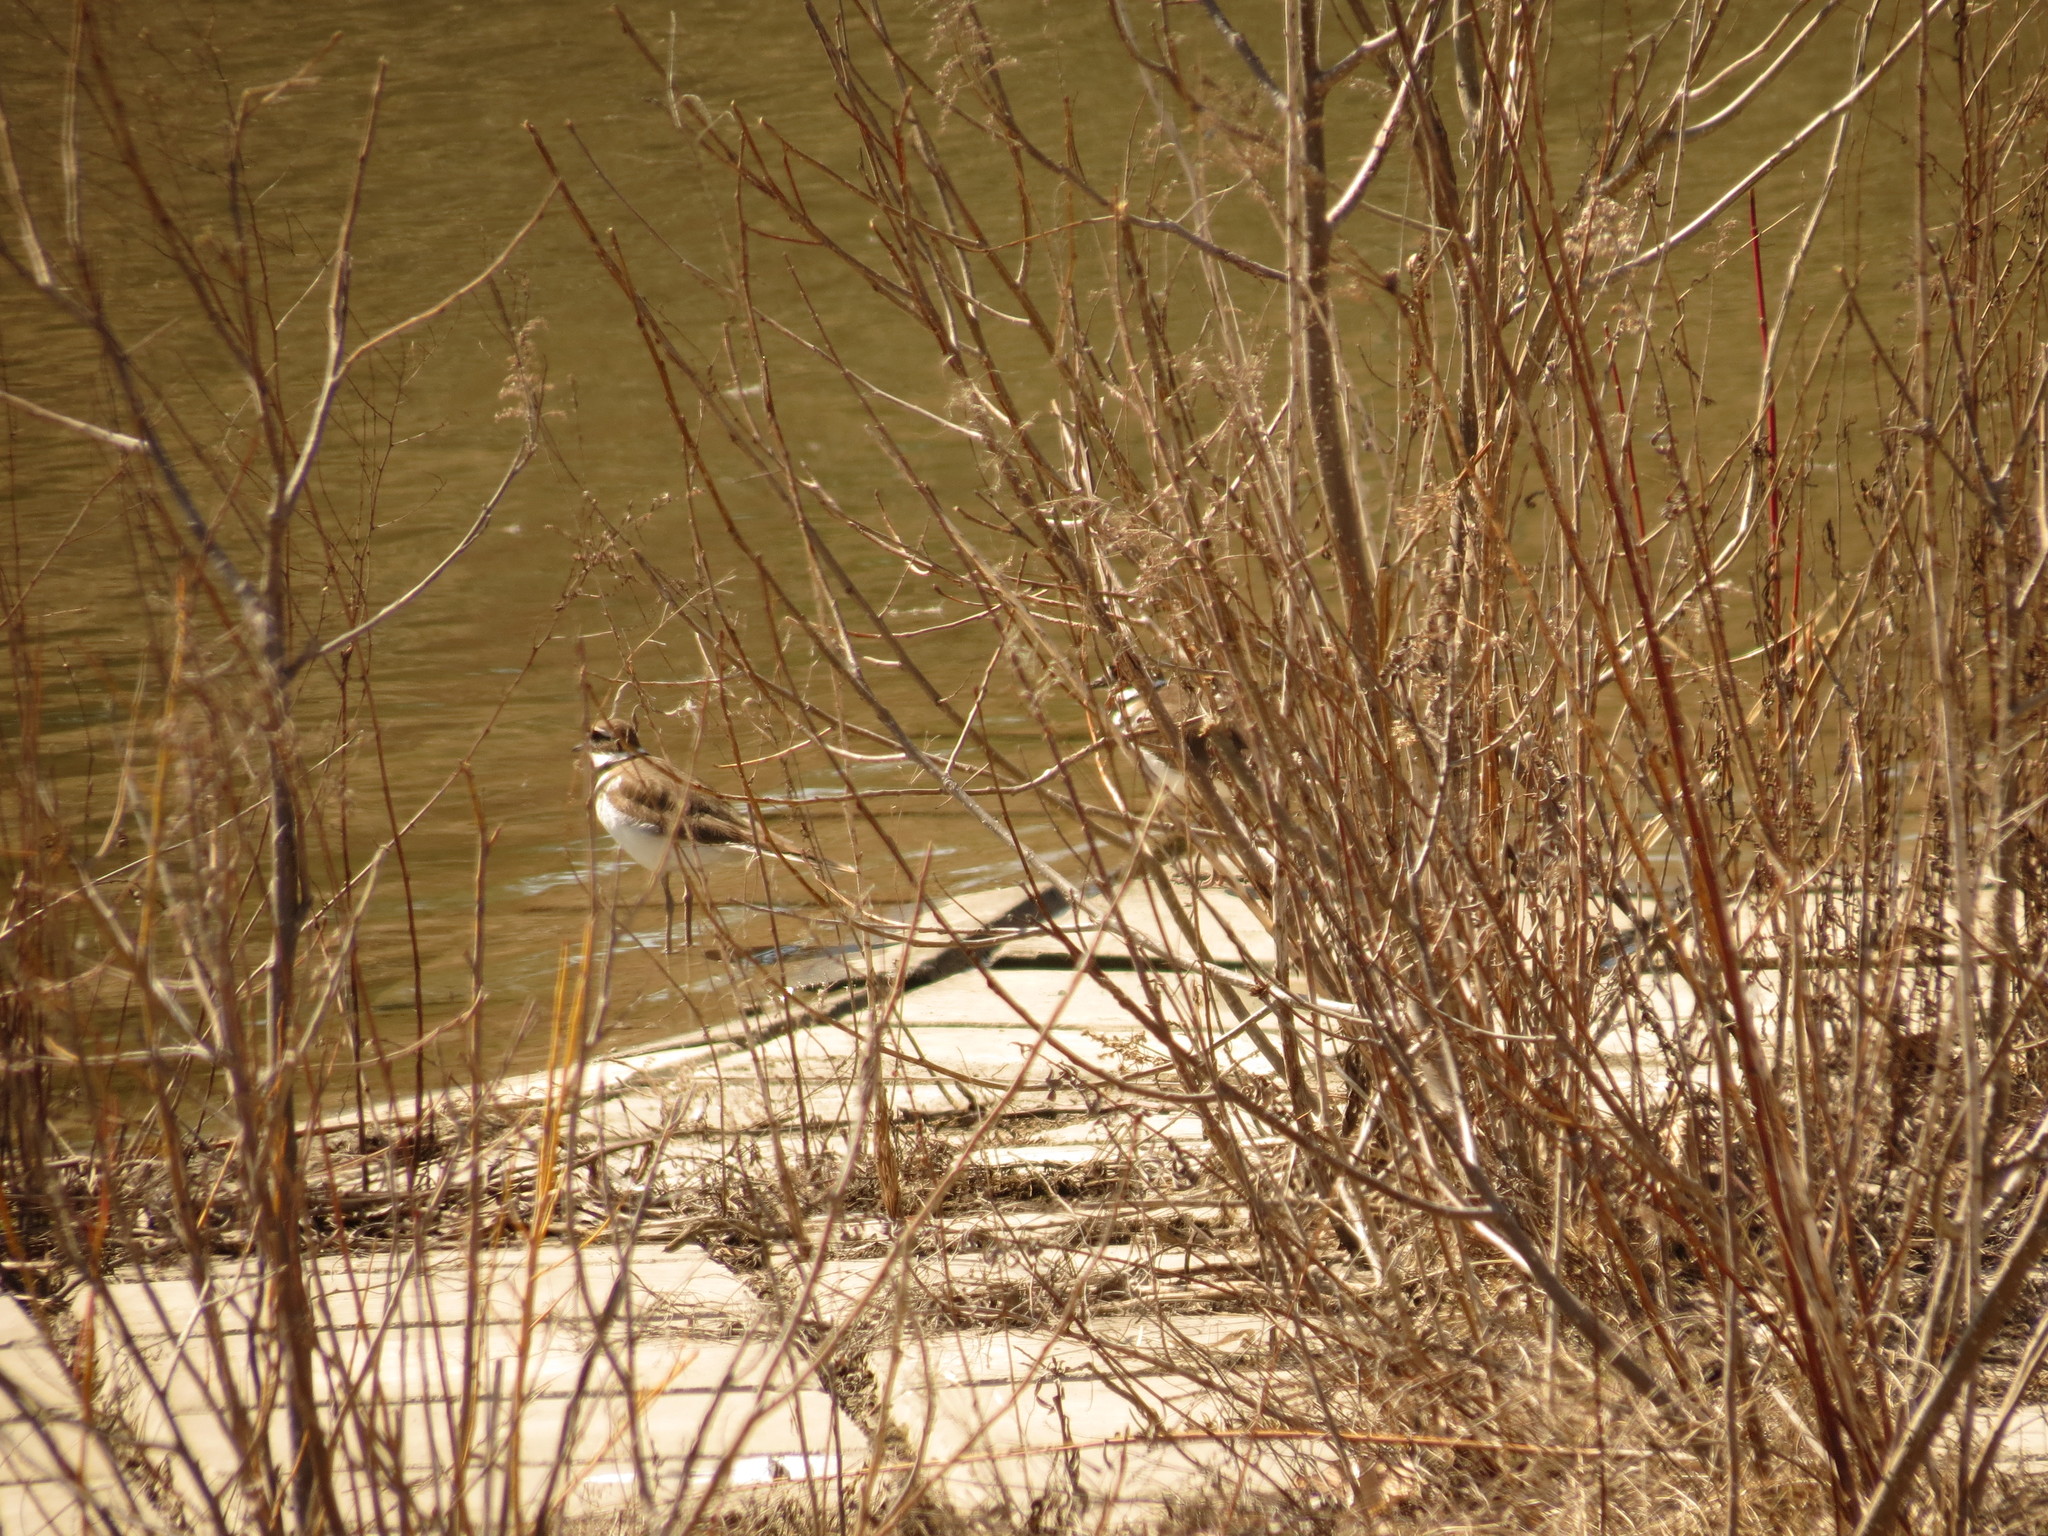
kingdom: Animalia
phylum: Chordata
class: Aves
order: Charadriiformes
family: Charadriidae
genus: Charadrius
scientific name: Charadrius vociferus
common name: Killdeer
